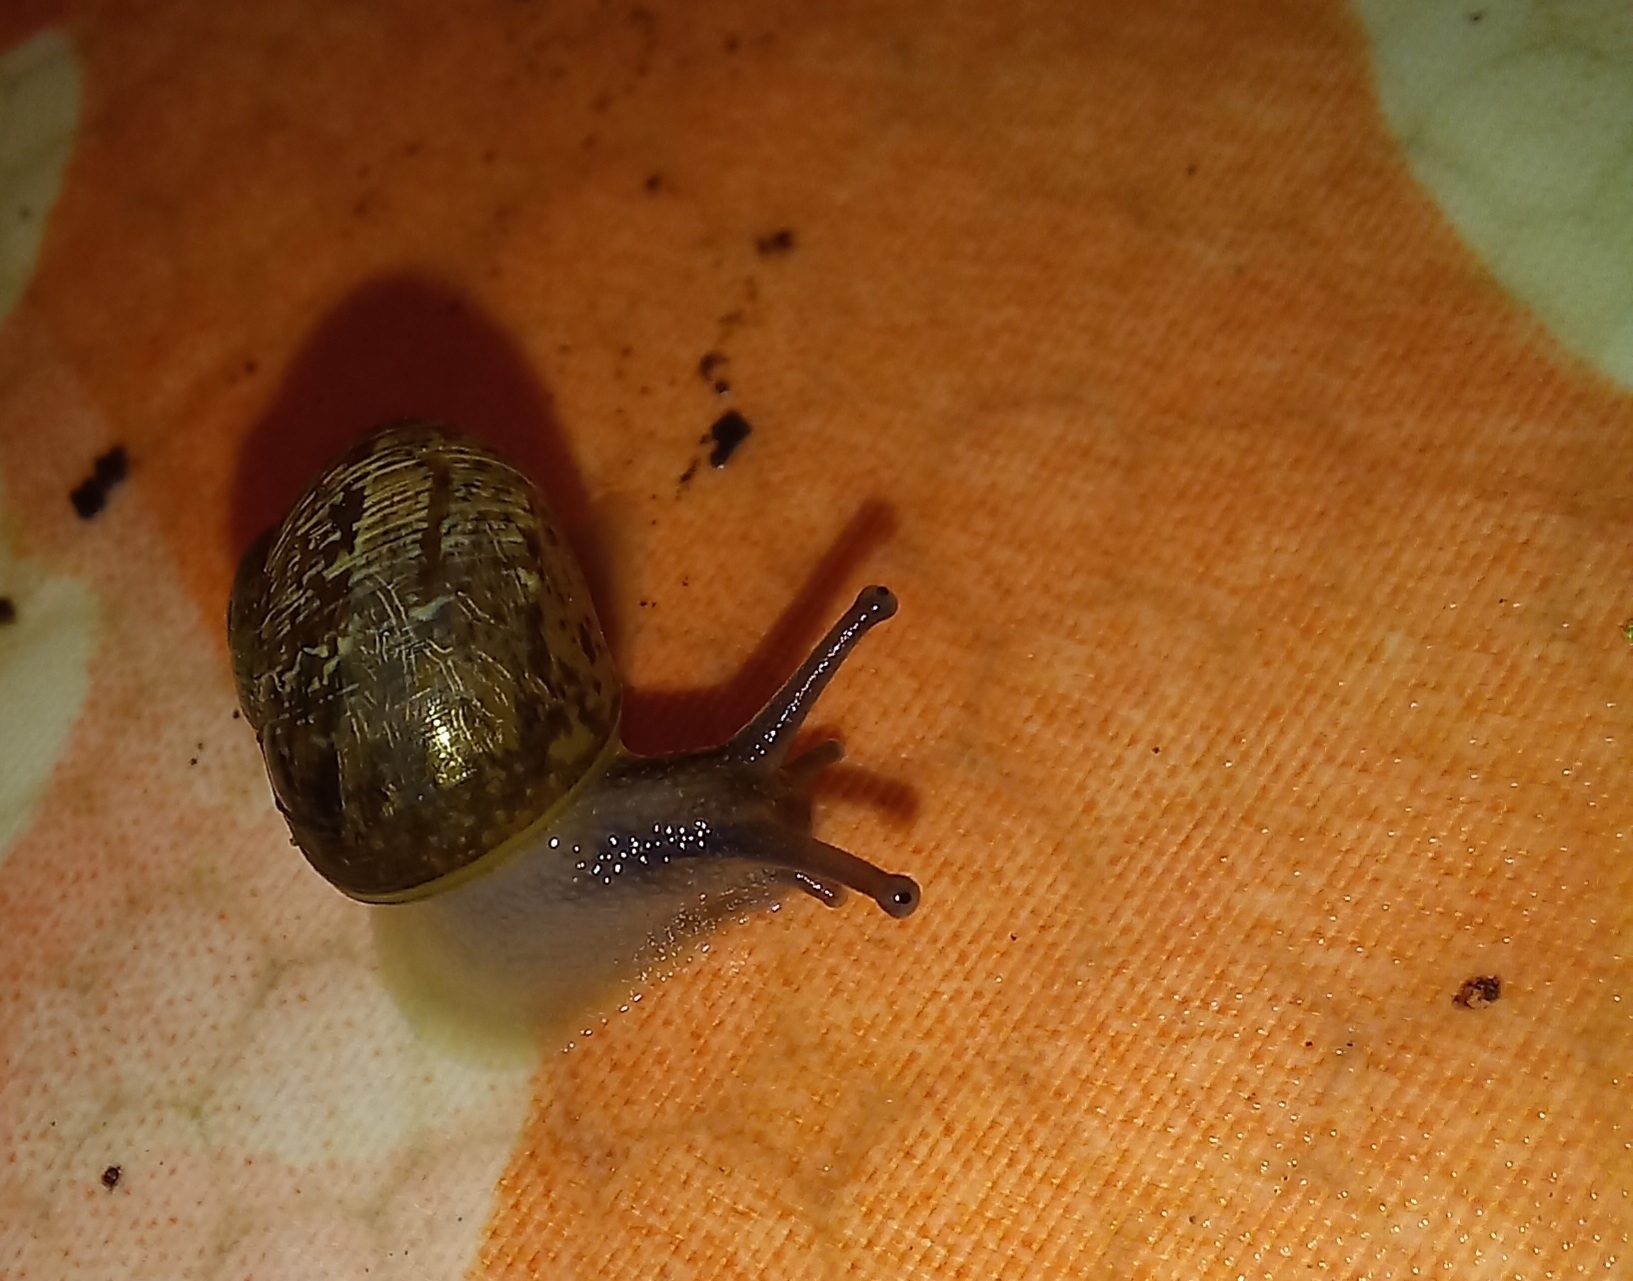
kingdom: Animalia
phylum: Mollusca
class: Gastropoda
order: Stylommatophora
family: Helicidae
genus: Cornu
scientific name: Cornu aspersum
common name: Brown garden snail
